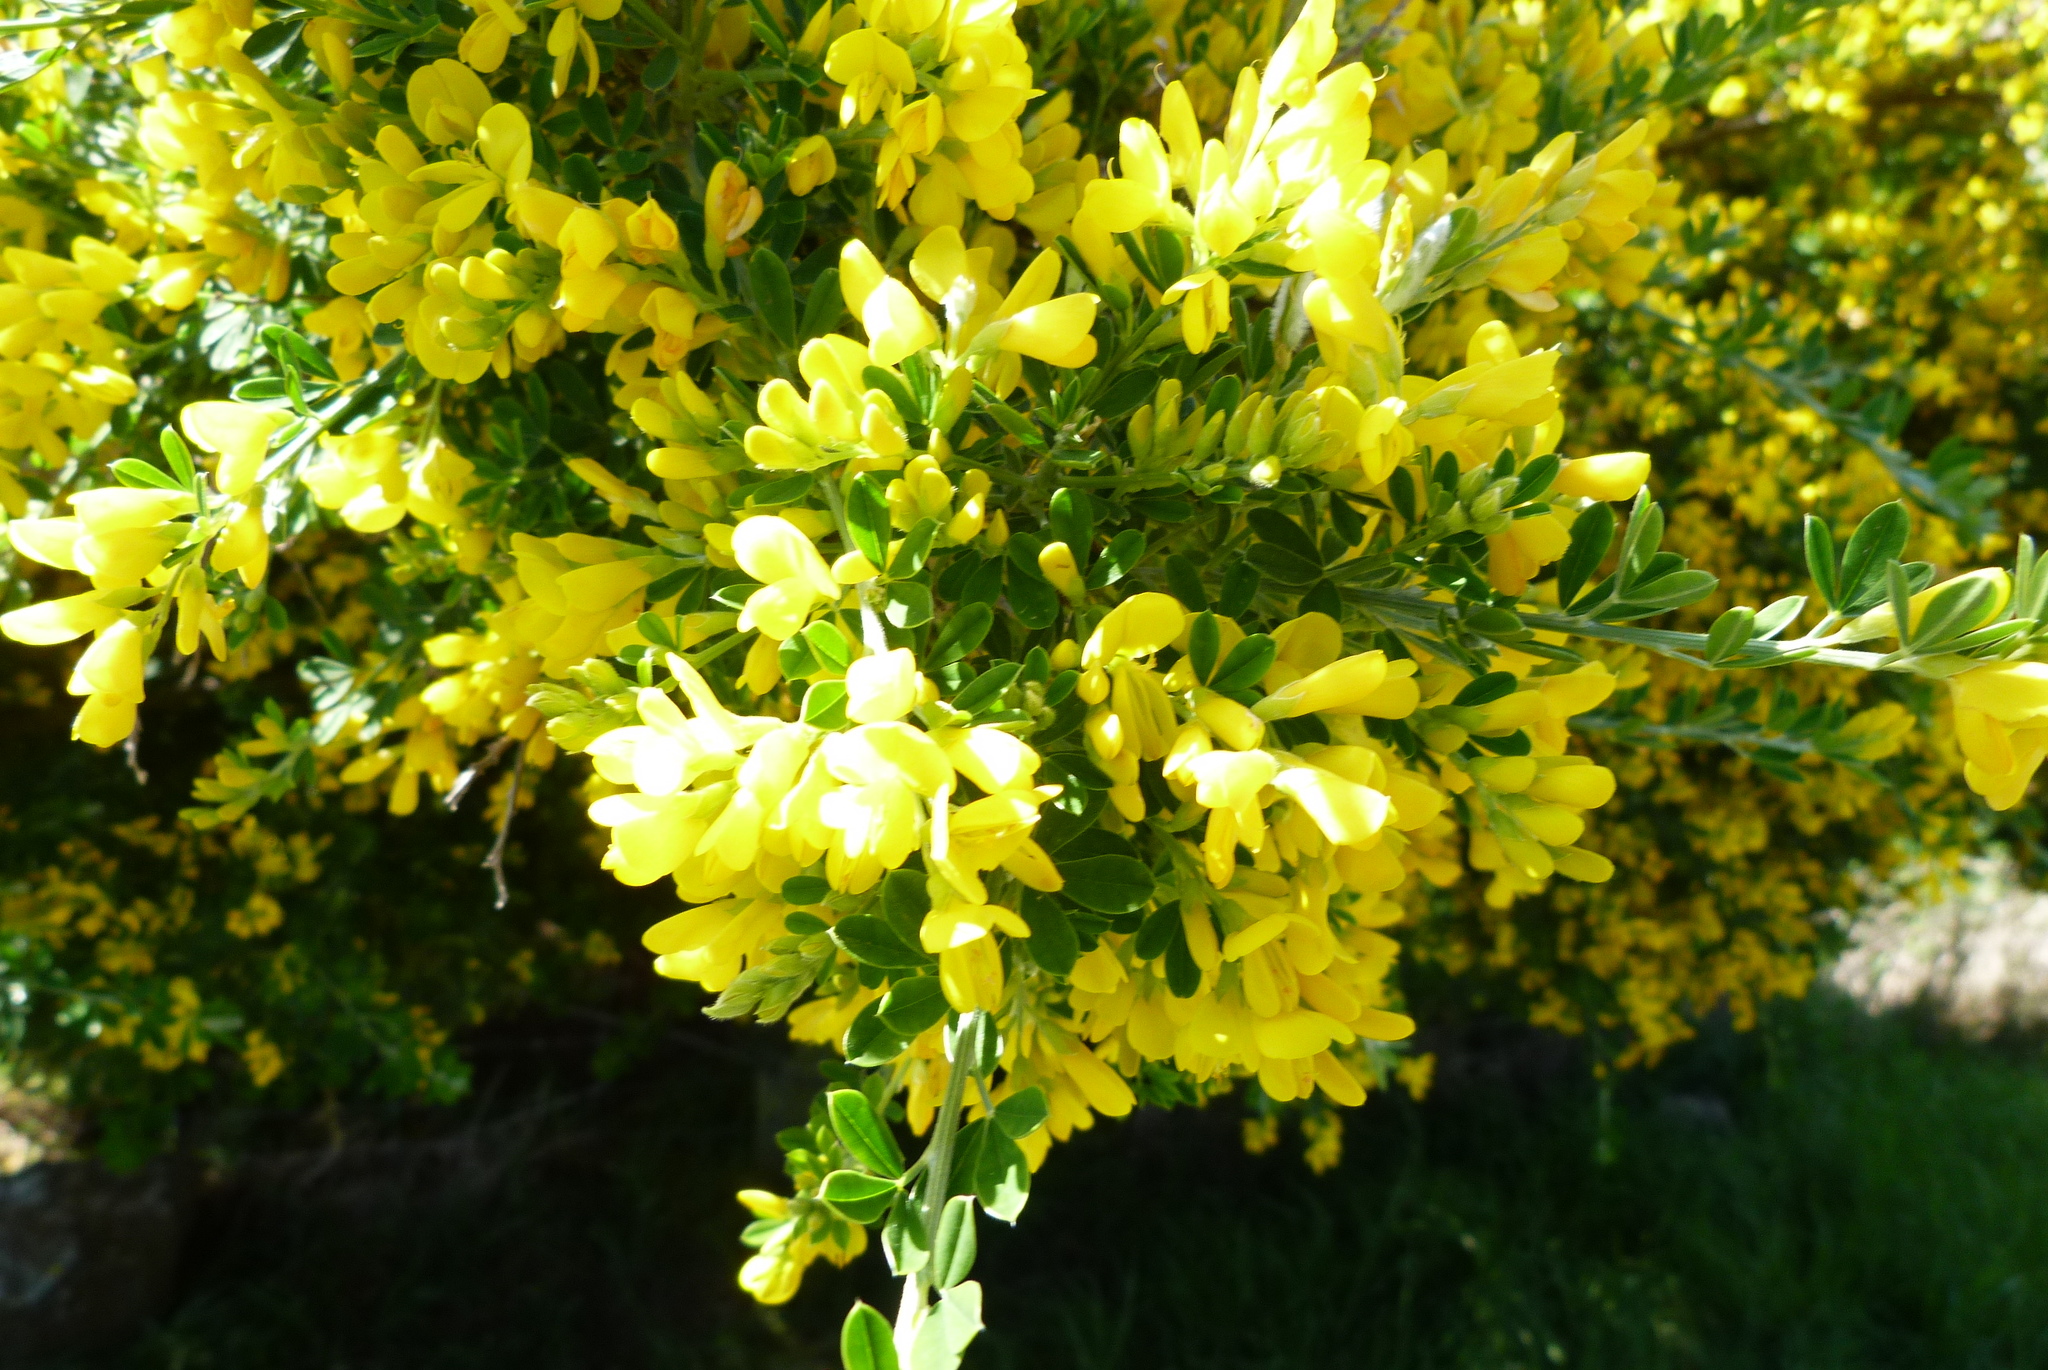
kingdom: Plantae
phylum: Tracheophyta
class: Magnoliopsida
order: Fabales
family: Fabaceae
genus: Genista
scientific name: Genista monspessulana
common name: Montpellier broom
